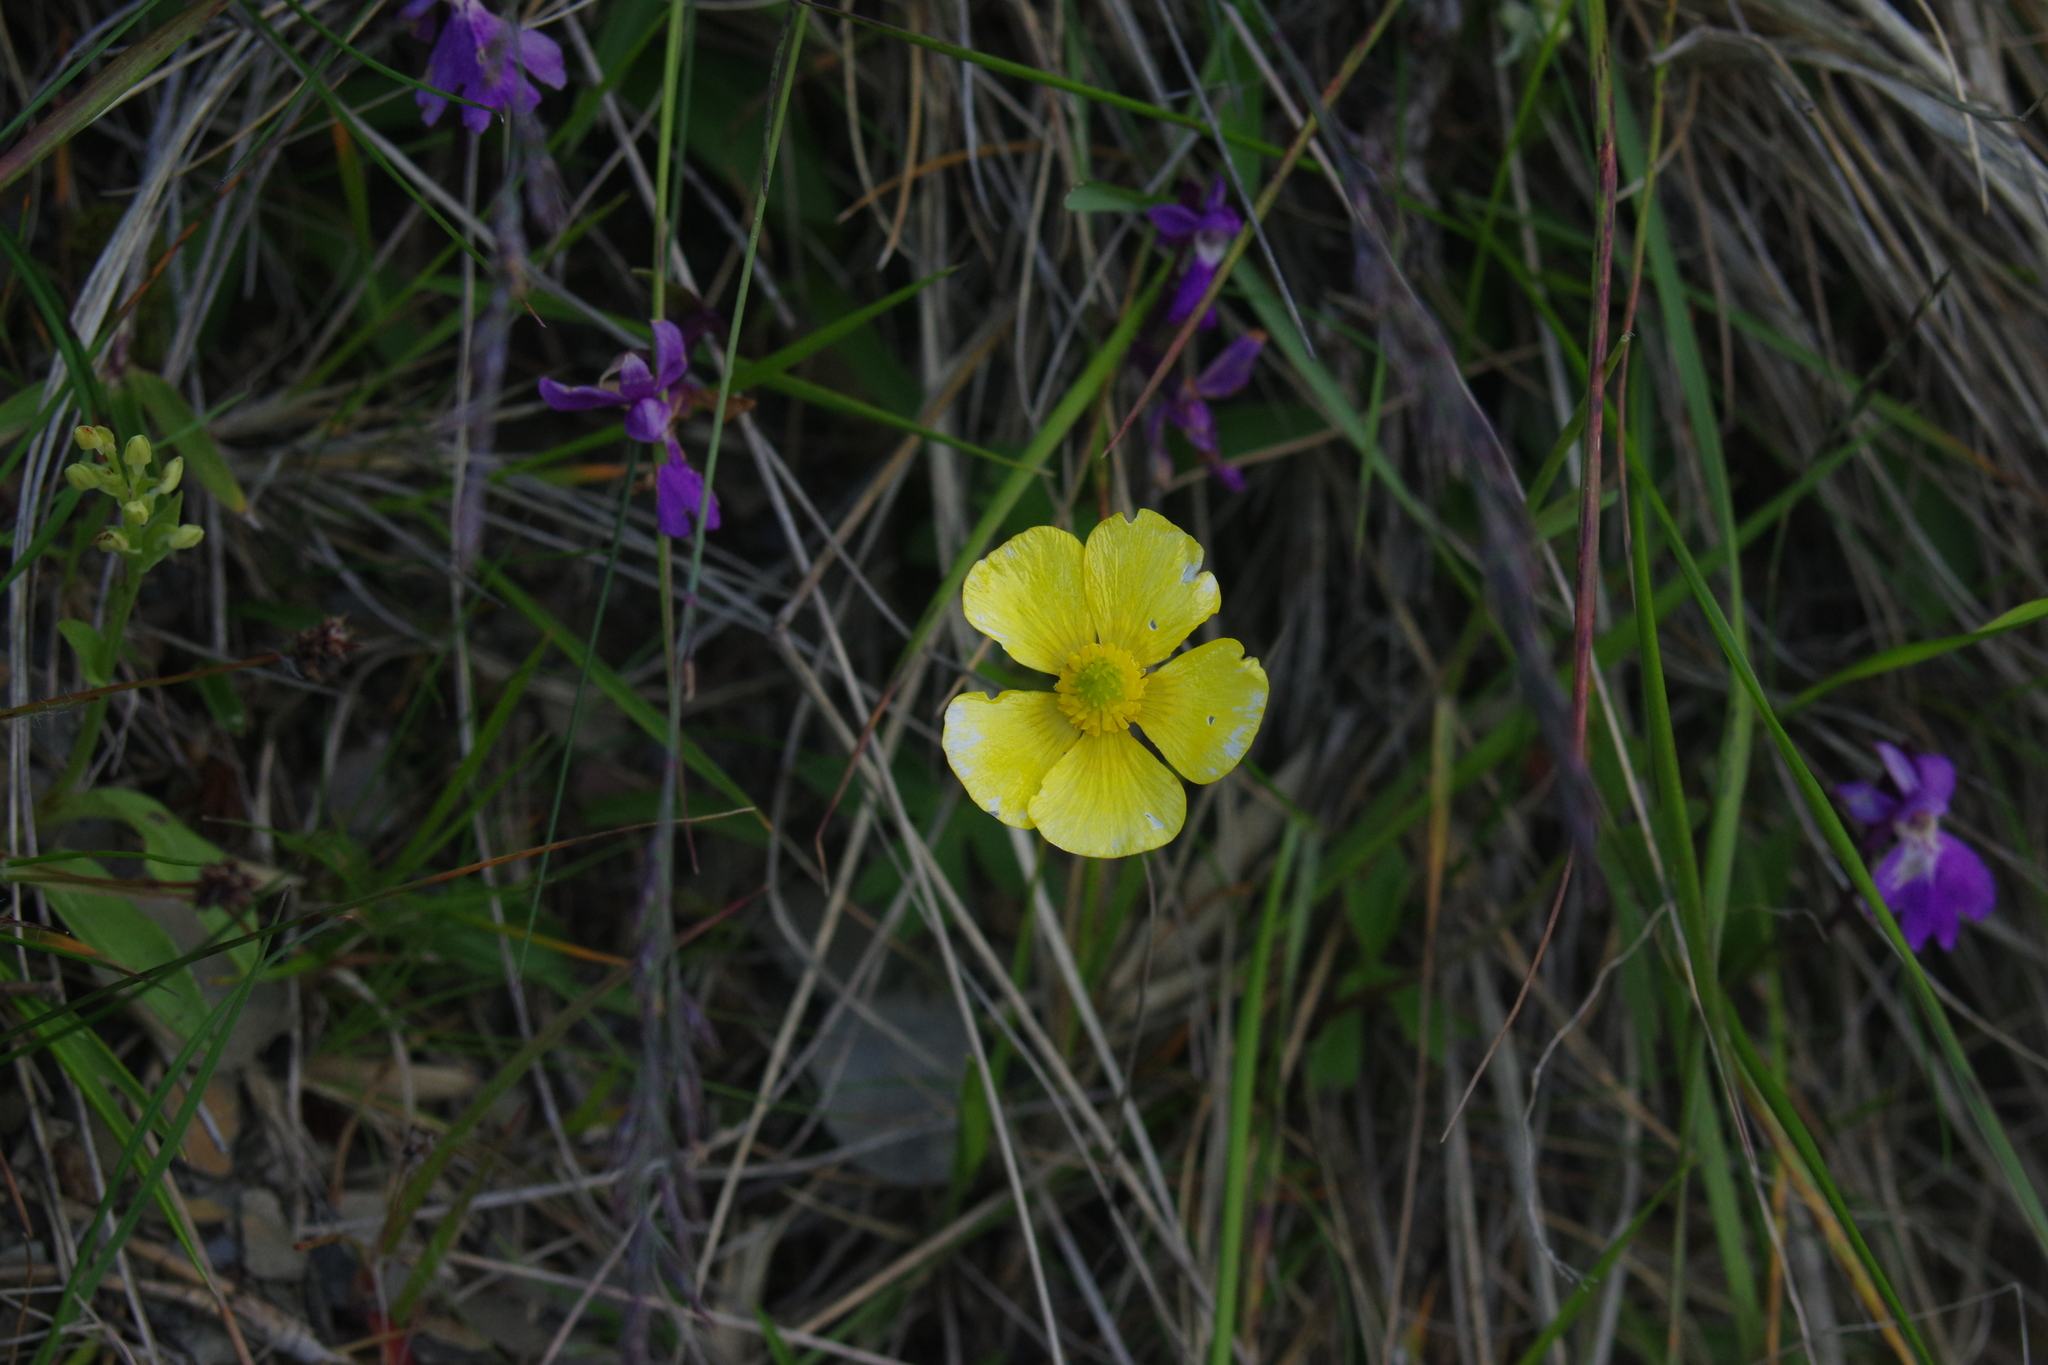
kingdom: Plantae
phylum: Tracheophyta
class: Magnoliopsida
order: Ranunculales
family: Ranunculaceae
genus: Ranunculus
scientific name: Ranunculus formosa-montanus
